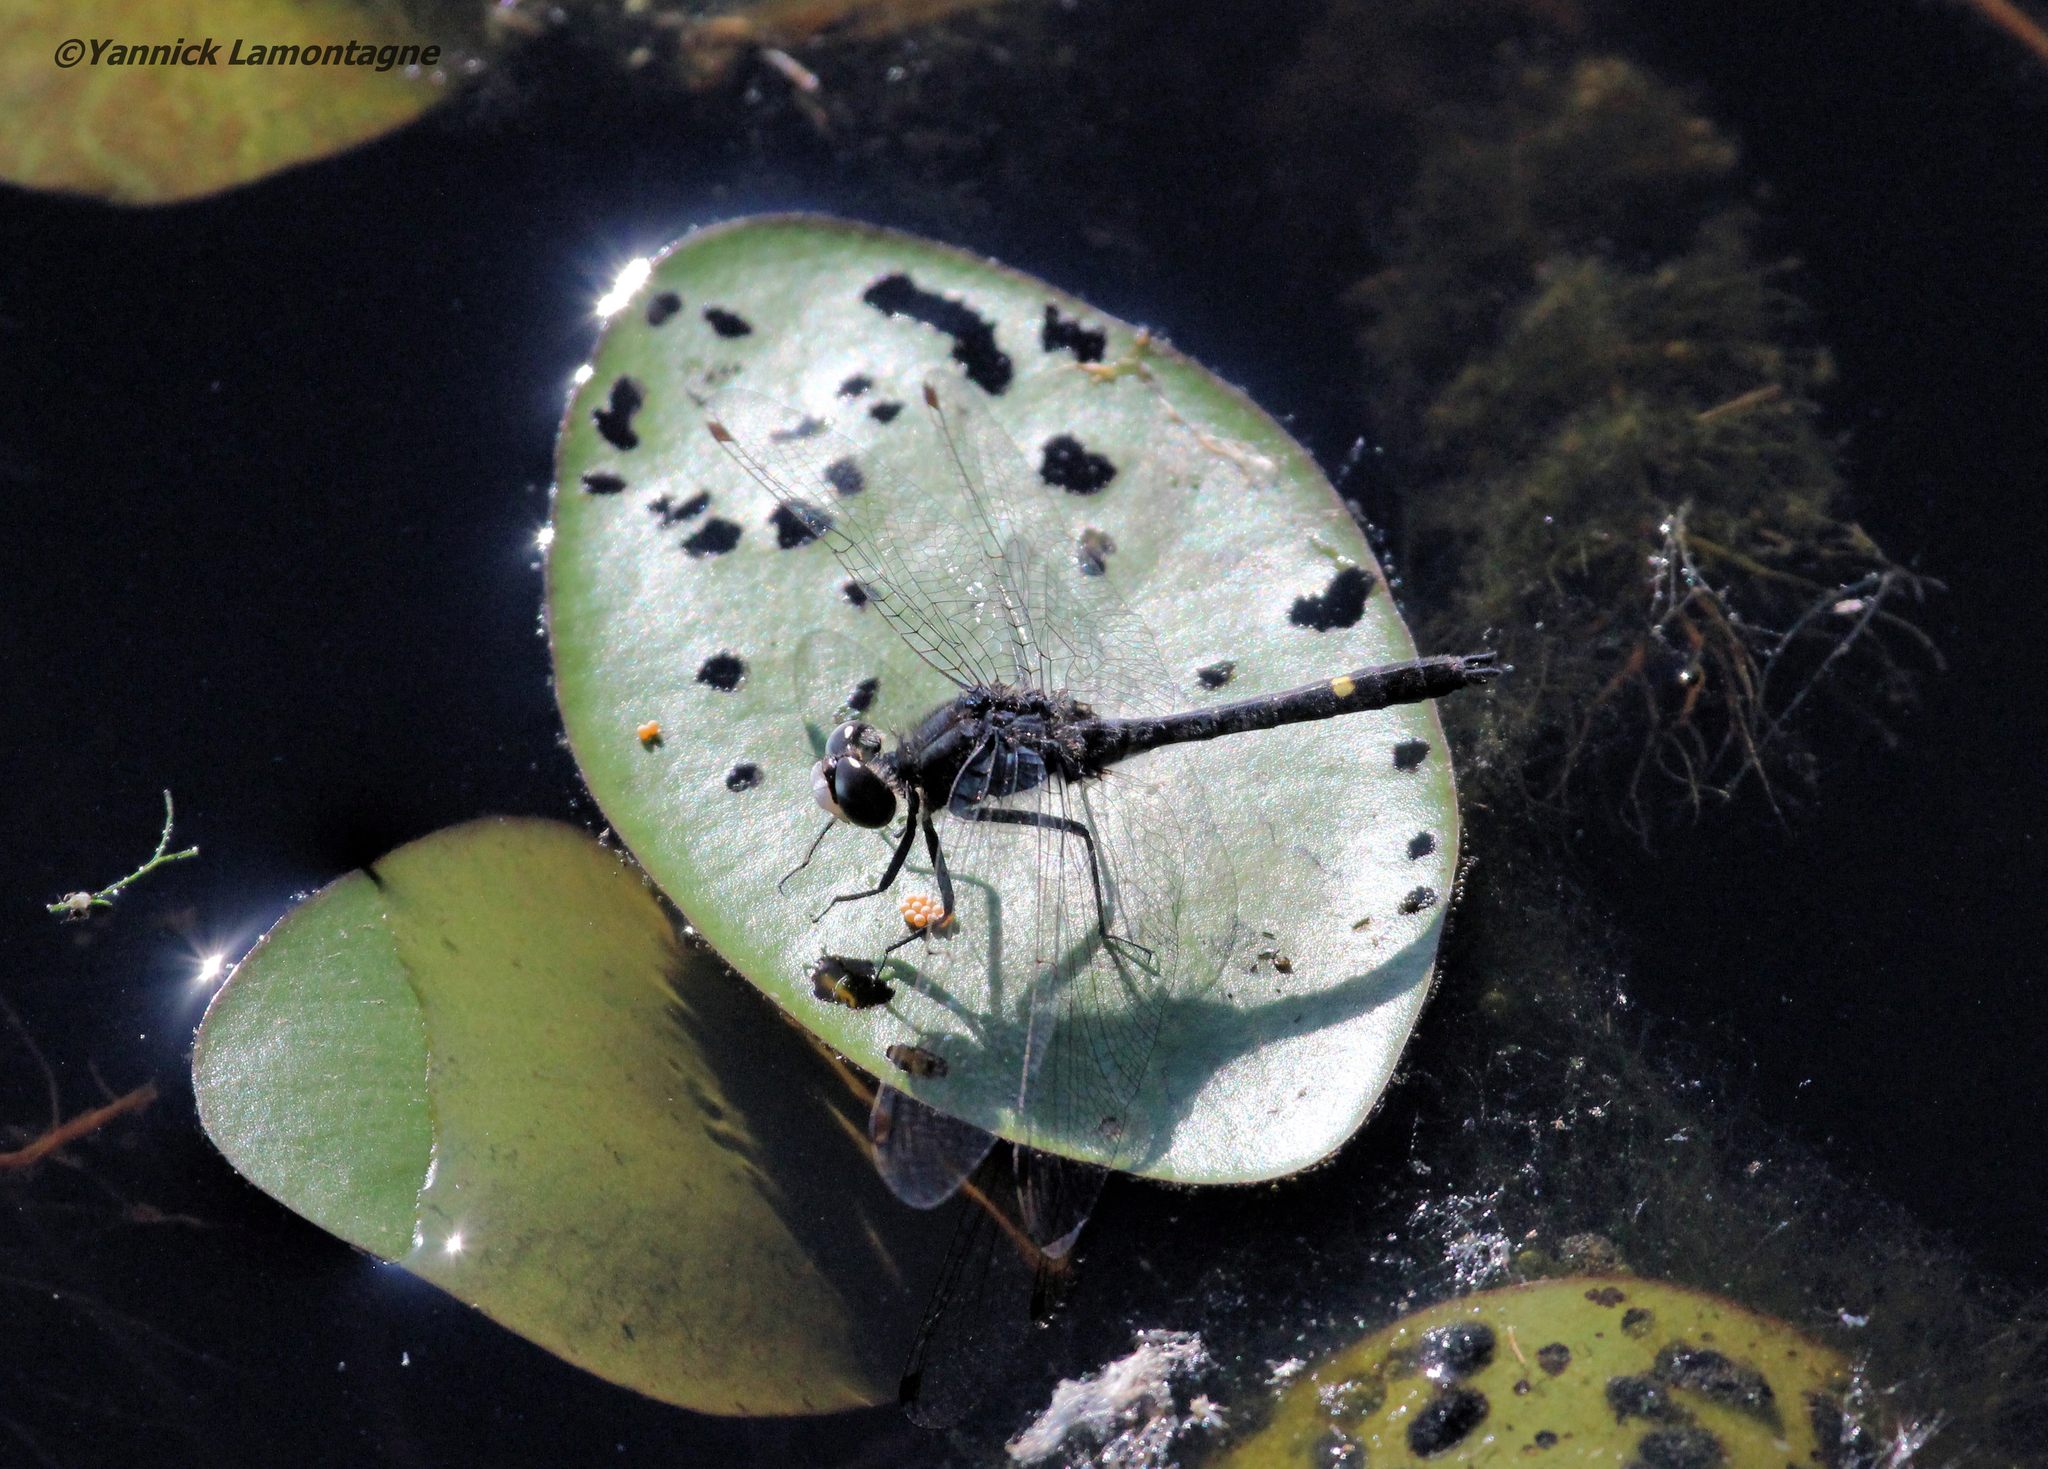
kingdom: Animalia
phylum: Arthropoda
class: Insecta
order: Odonata
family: Libellulidae
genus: Leucorrhinia
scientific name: Leucorrhinia intacta
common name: Dot-tailed whiteface
